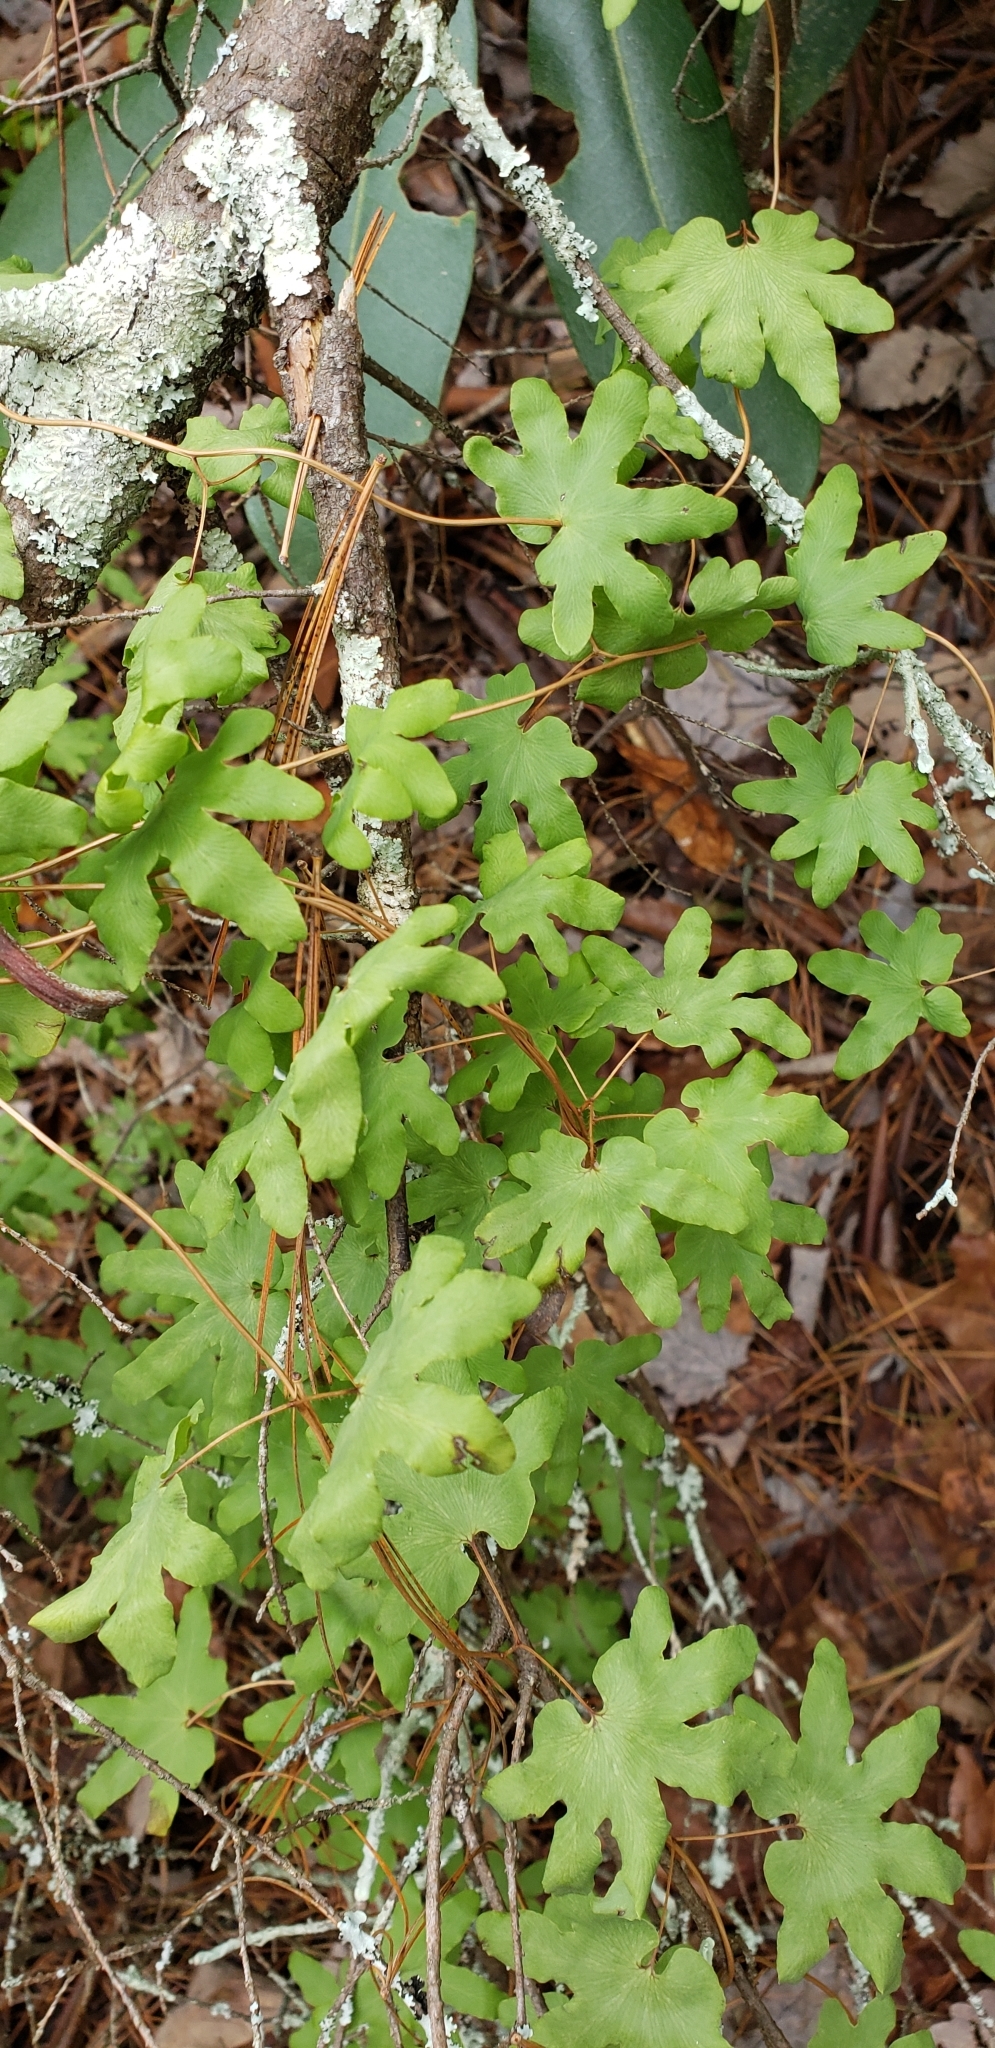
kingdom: Plantae
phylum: Tracheophyta
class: Polypodiopsida
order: Schizaeales
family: Lygodiaceae
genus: Lygodium
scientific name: Lygodium palmatum
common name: American climbing fern
